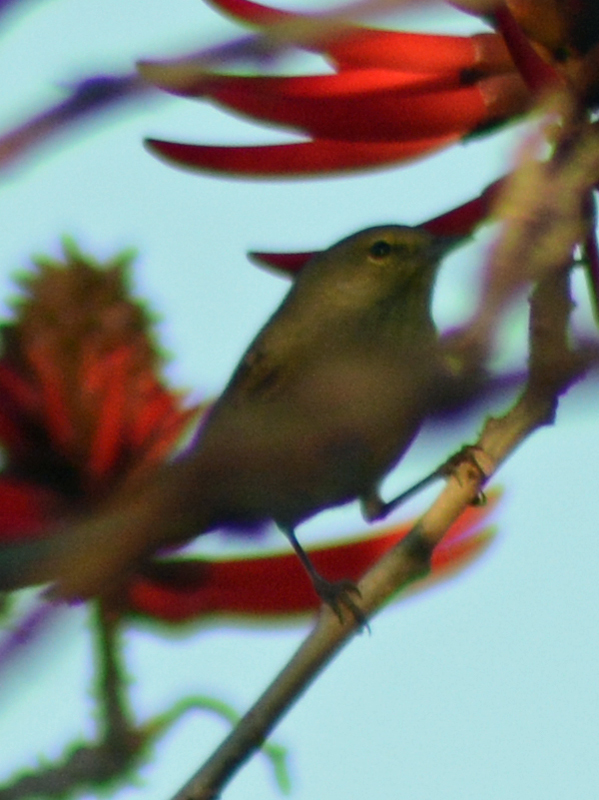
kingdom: Animalia
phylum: Chordata
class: Aves
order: Passeriformes
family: Parulidae
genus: Leiothlypis
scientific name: Leiothlypis celata
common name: Orange-crowned warbler
